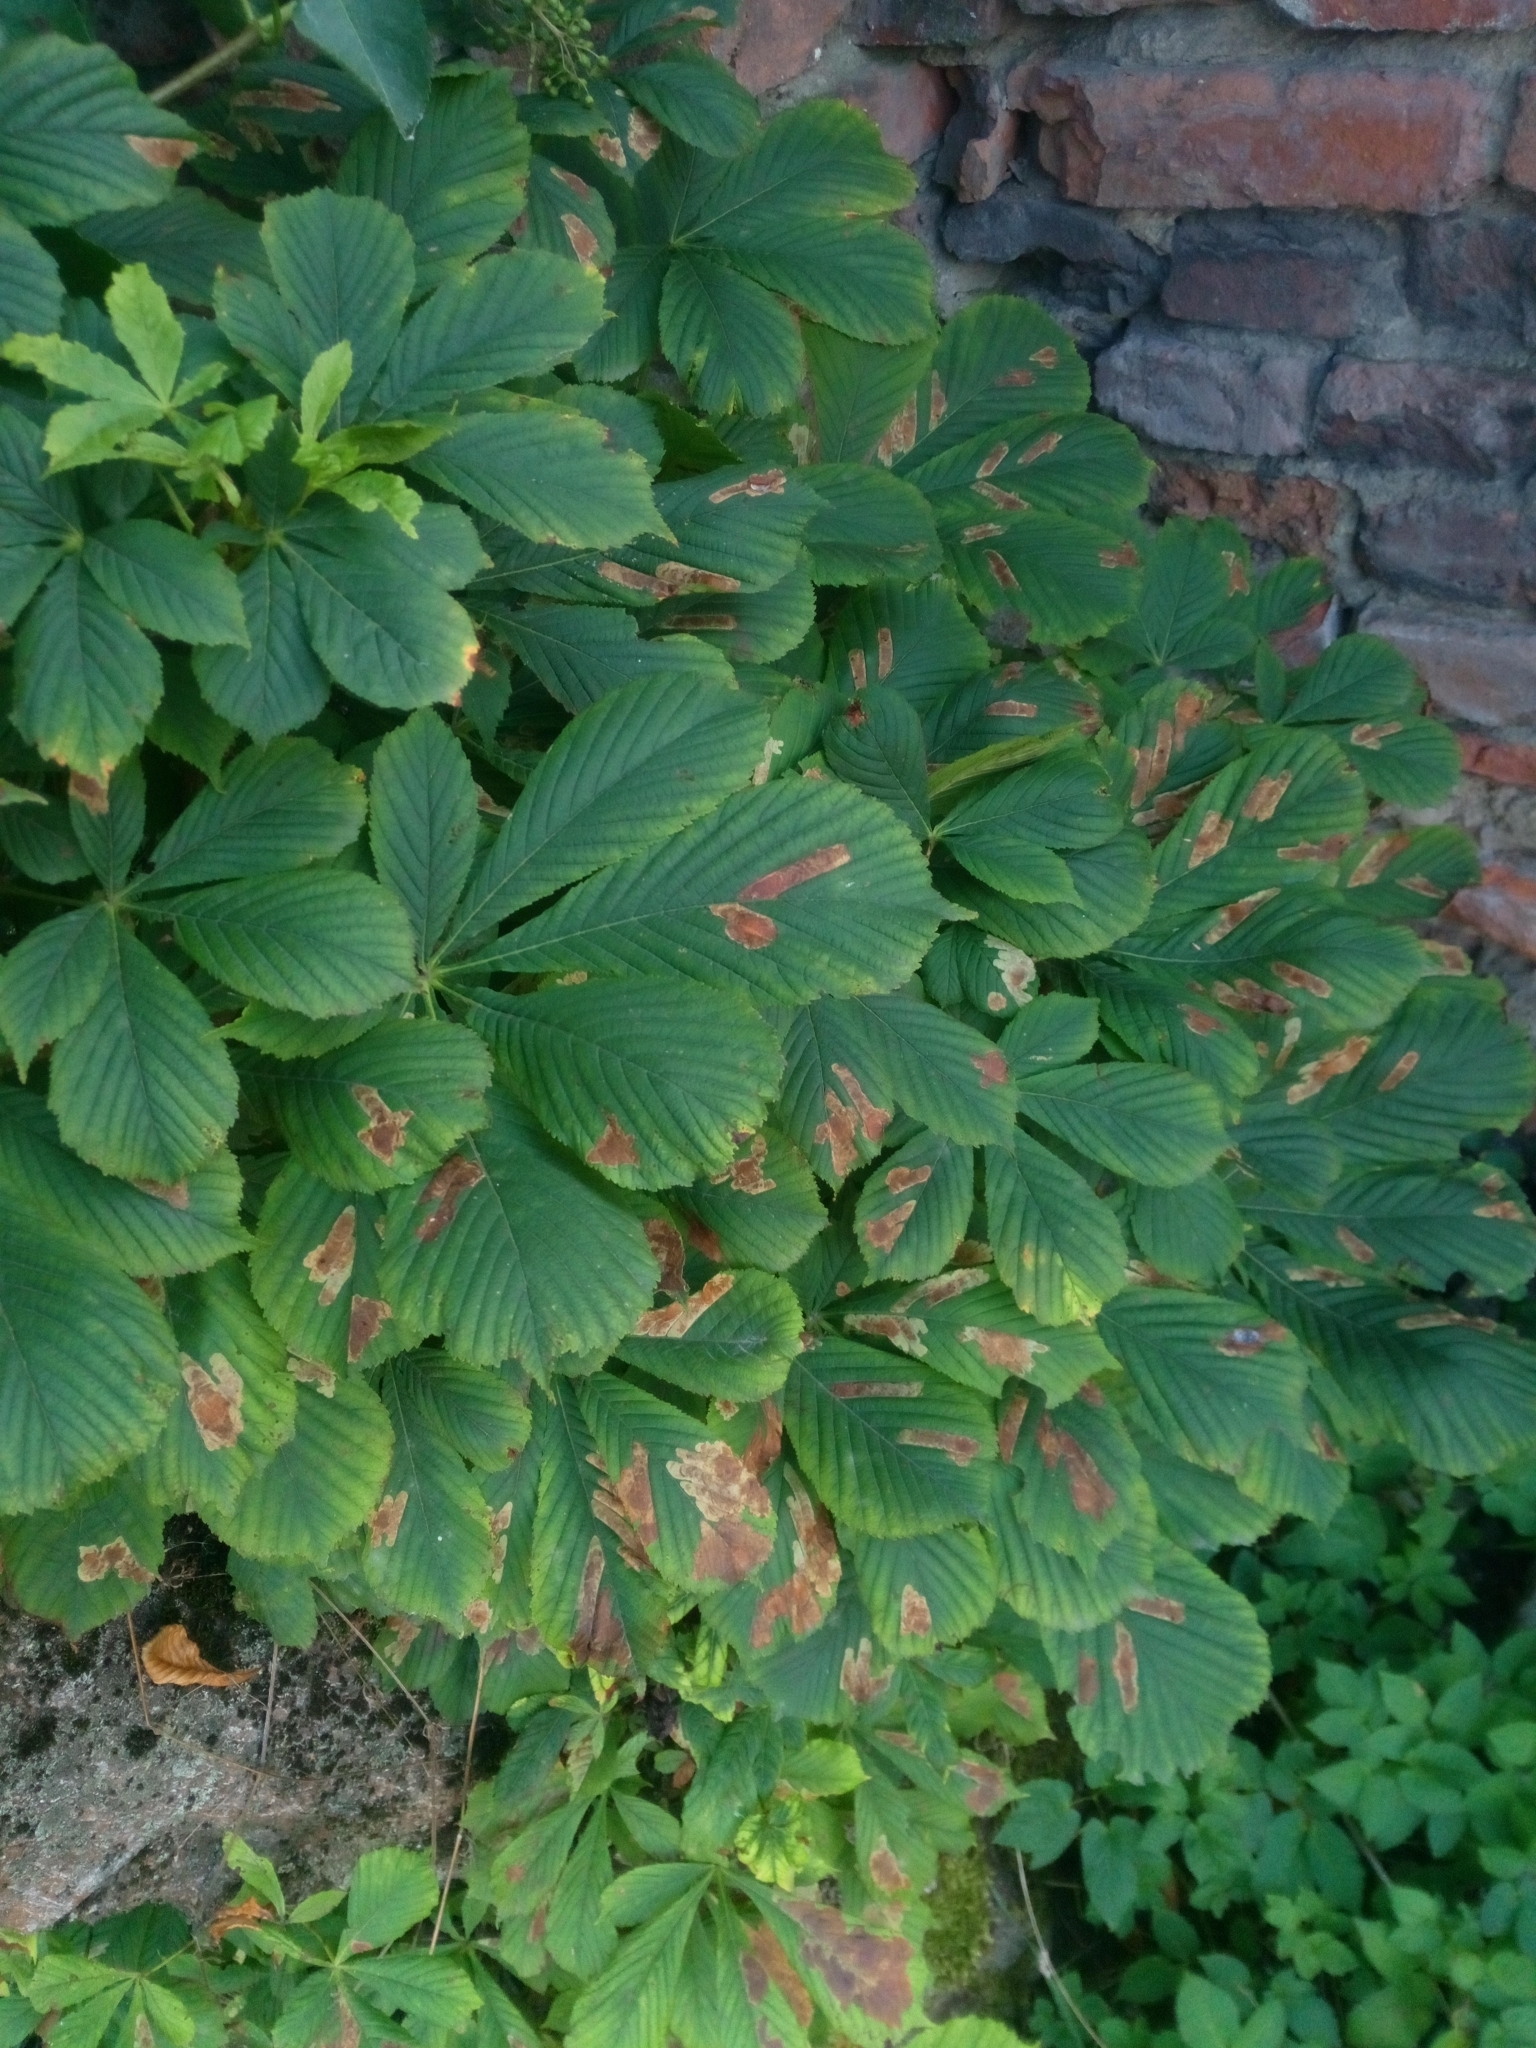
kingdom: Animalia
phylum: Arthropoda
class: Insecta
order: Lepidoptera
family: Gracillariidae
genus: Cameraria
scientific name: Cameraria ohridella
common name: Horse-chestnut leaf-miner
